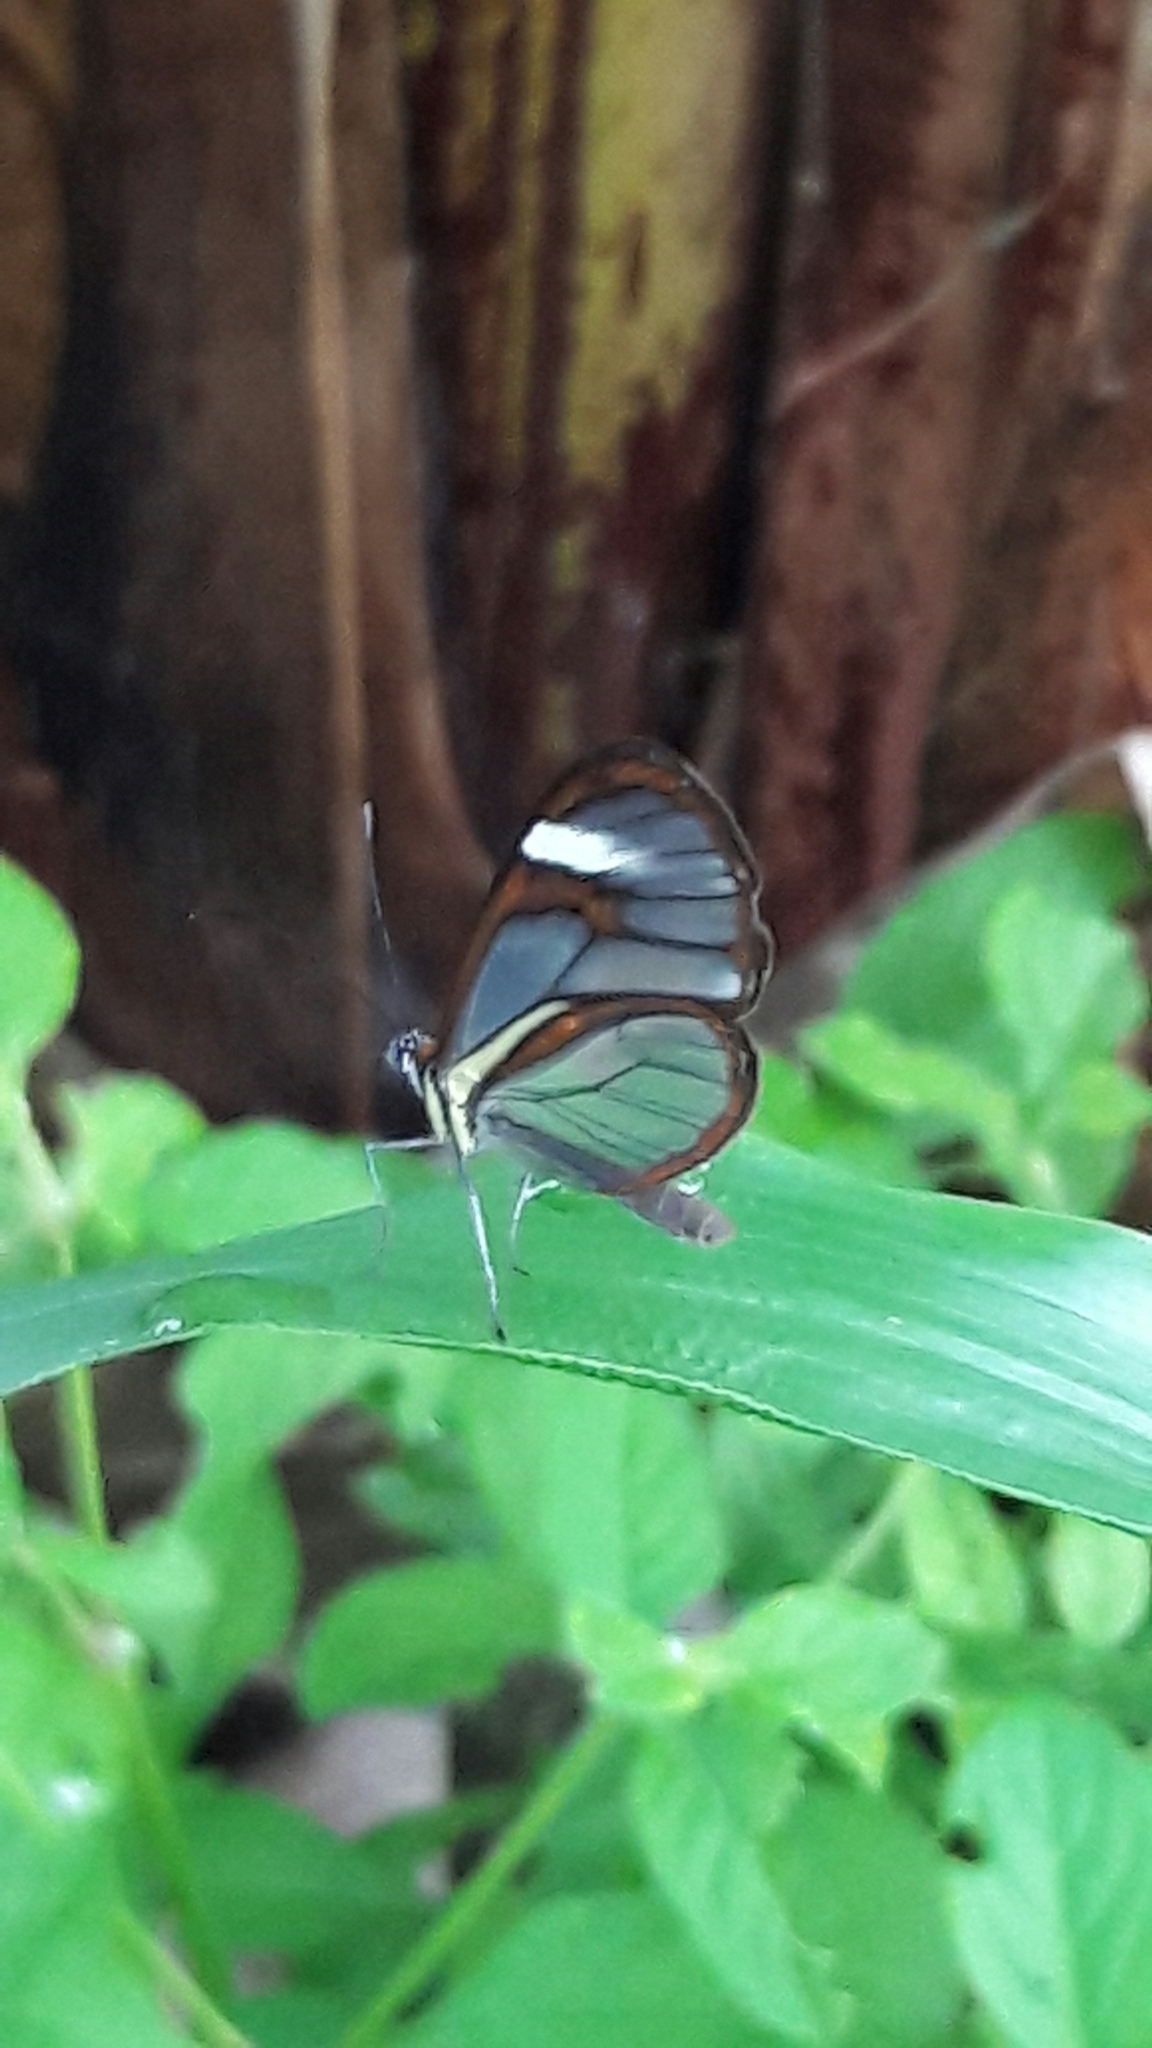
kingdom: Animalia
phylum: Arthropoda
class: Insecta
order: Lepidoptera
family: Nymphalidae
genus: Ithomia
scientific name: Ithomia agnosia
